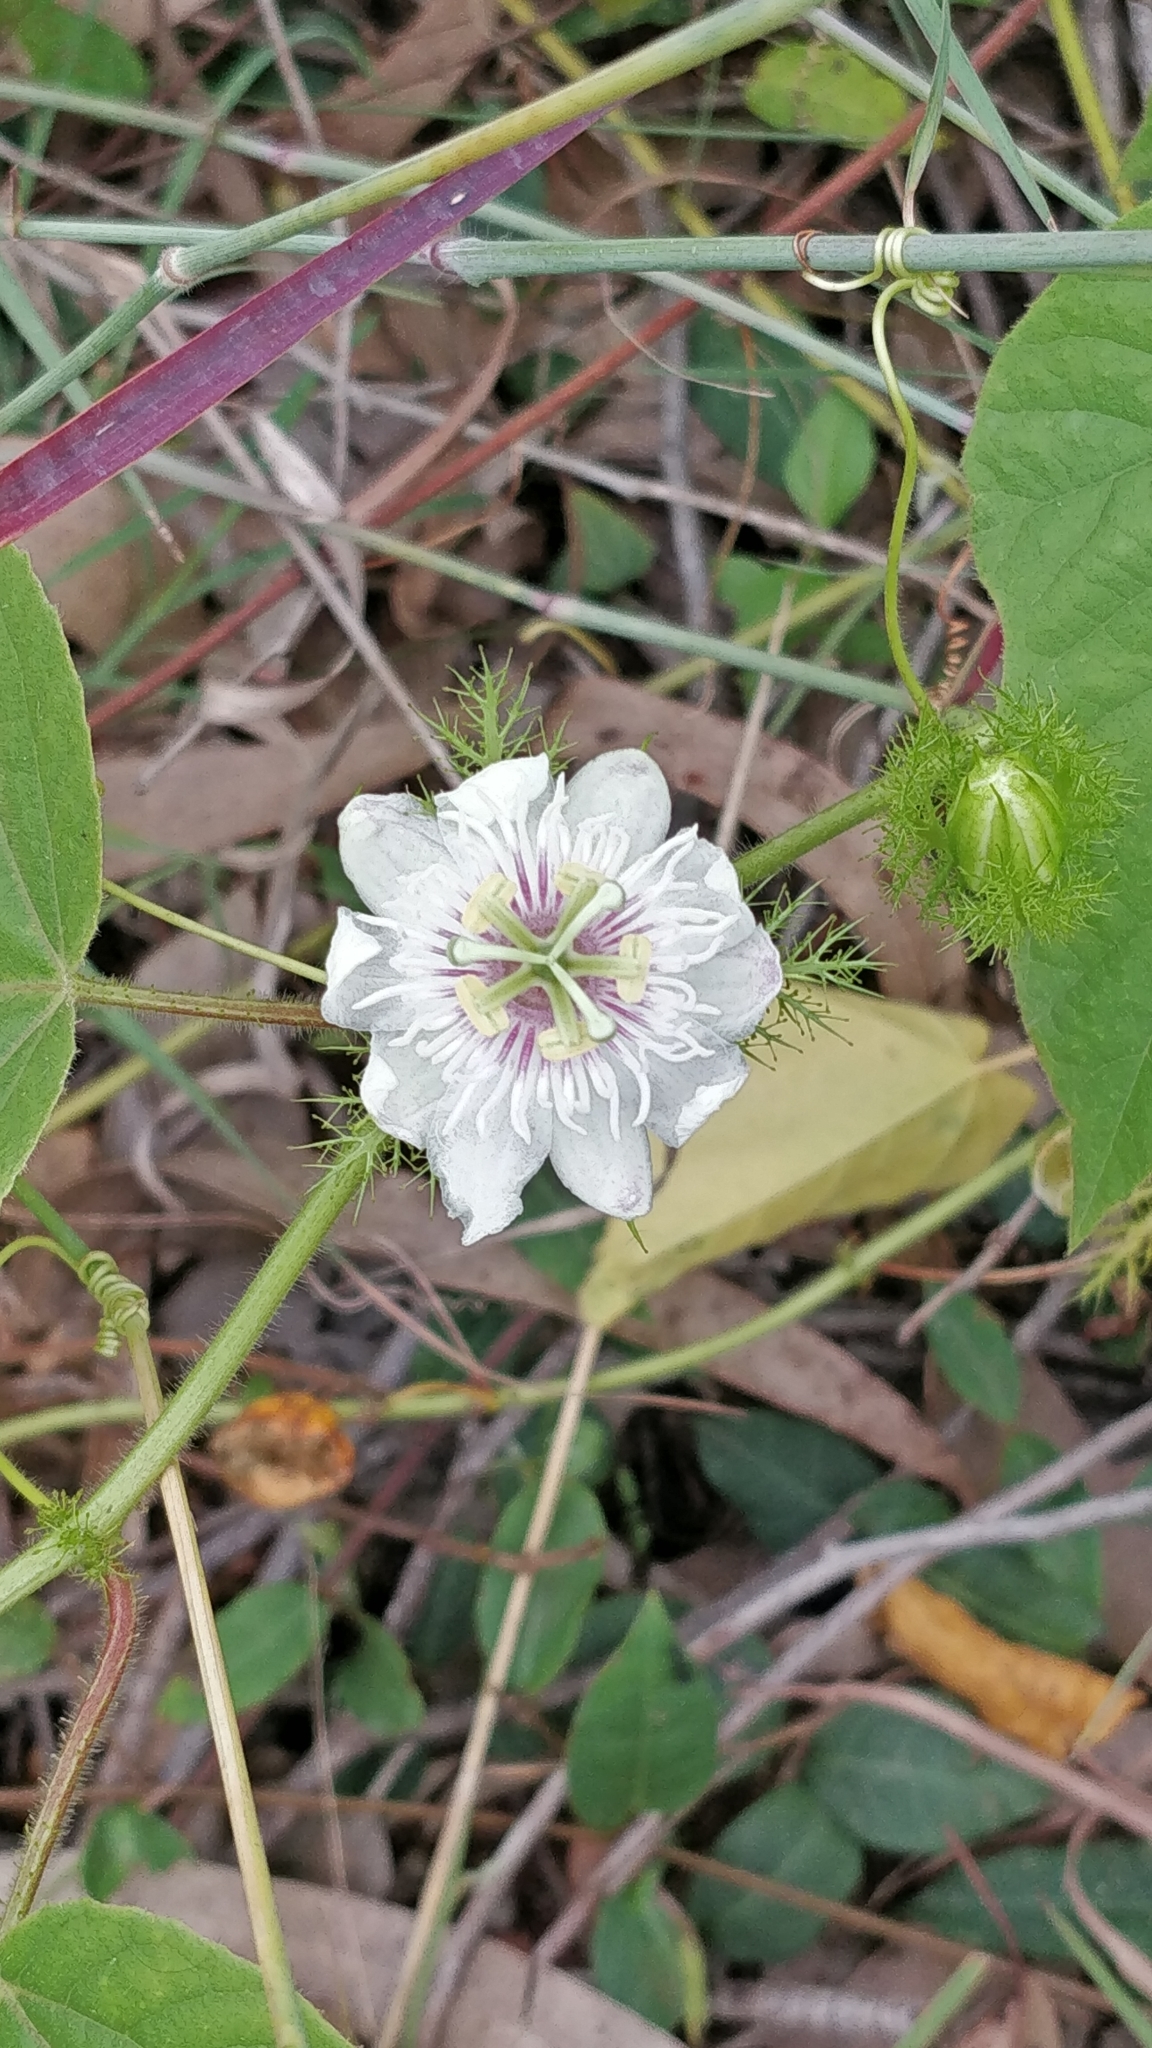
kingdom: Plantae
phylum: Tracheophyta
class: Magnoliopsida
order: Malpighiales
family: Passifloraceae
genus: Passiflora
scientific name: Passiflora foetida
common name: Fetid passionflower
